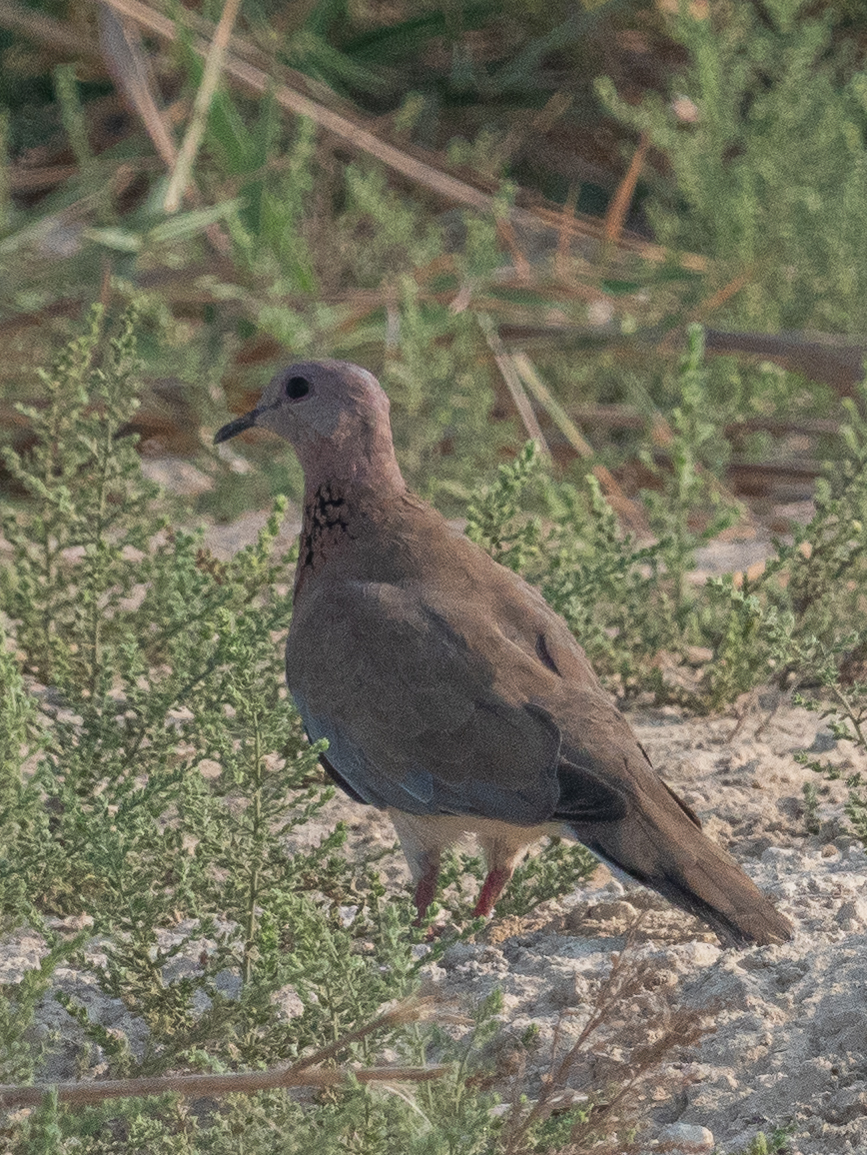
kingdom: Animalia
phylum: Chordata
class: Aves
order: Columbiformes
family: Columbidae
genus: Spilopelia
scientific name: Spilopelia senegalensis
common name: Laughing dove
